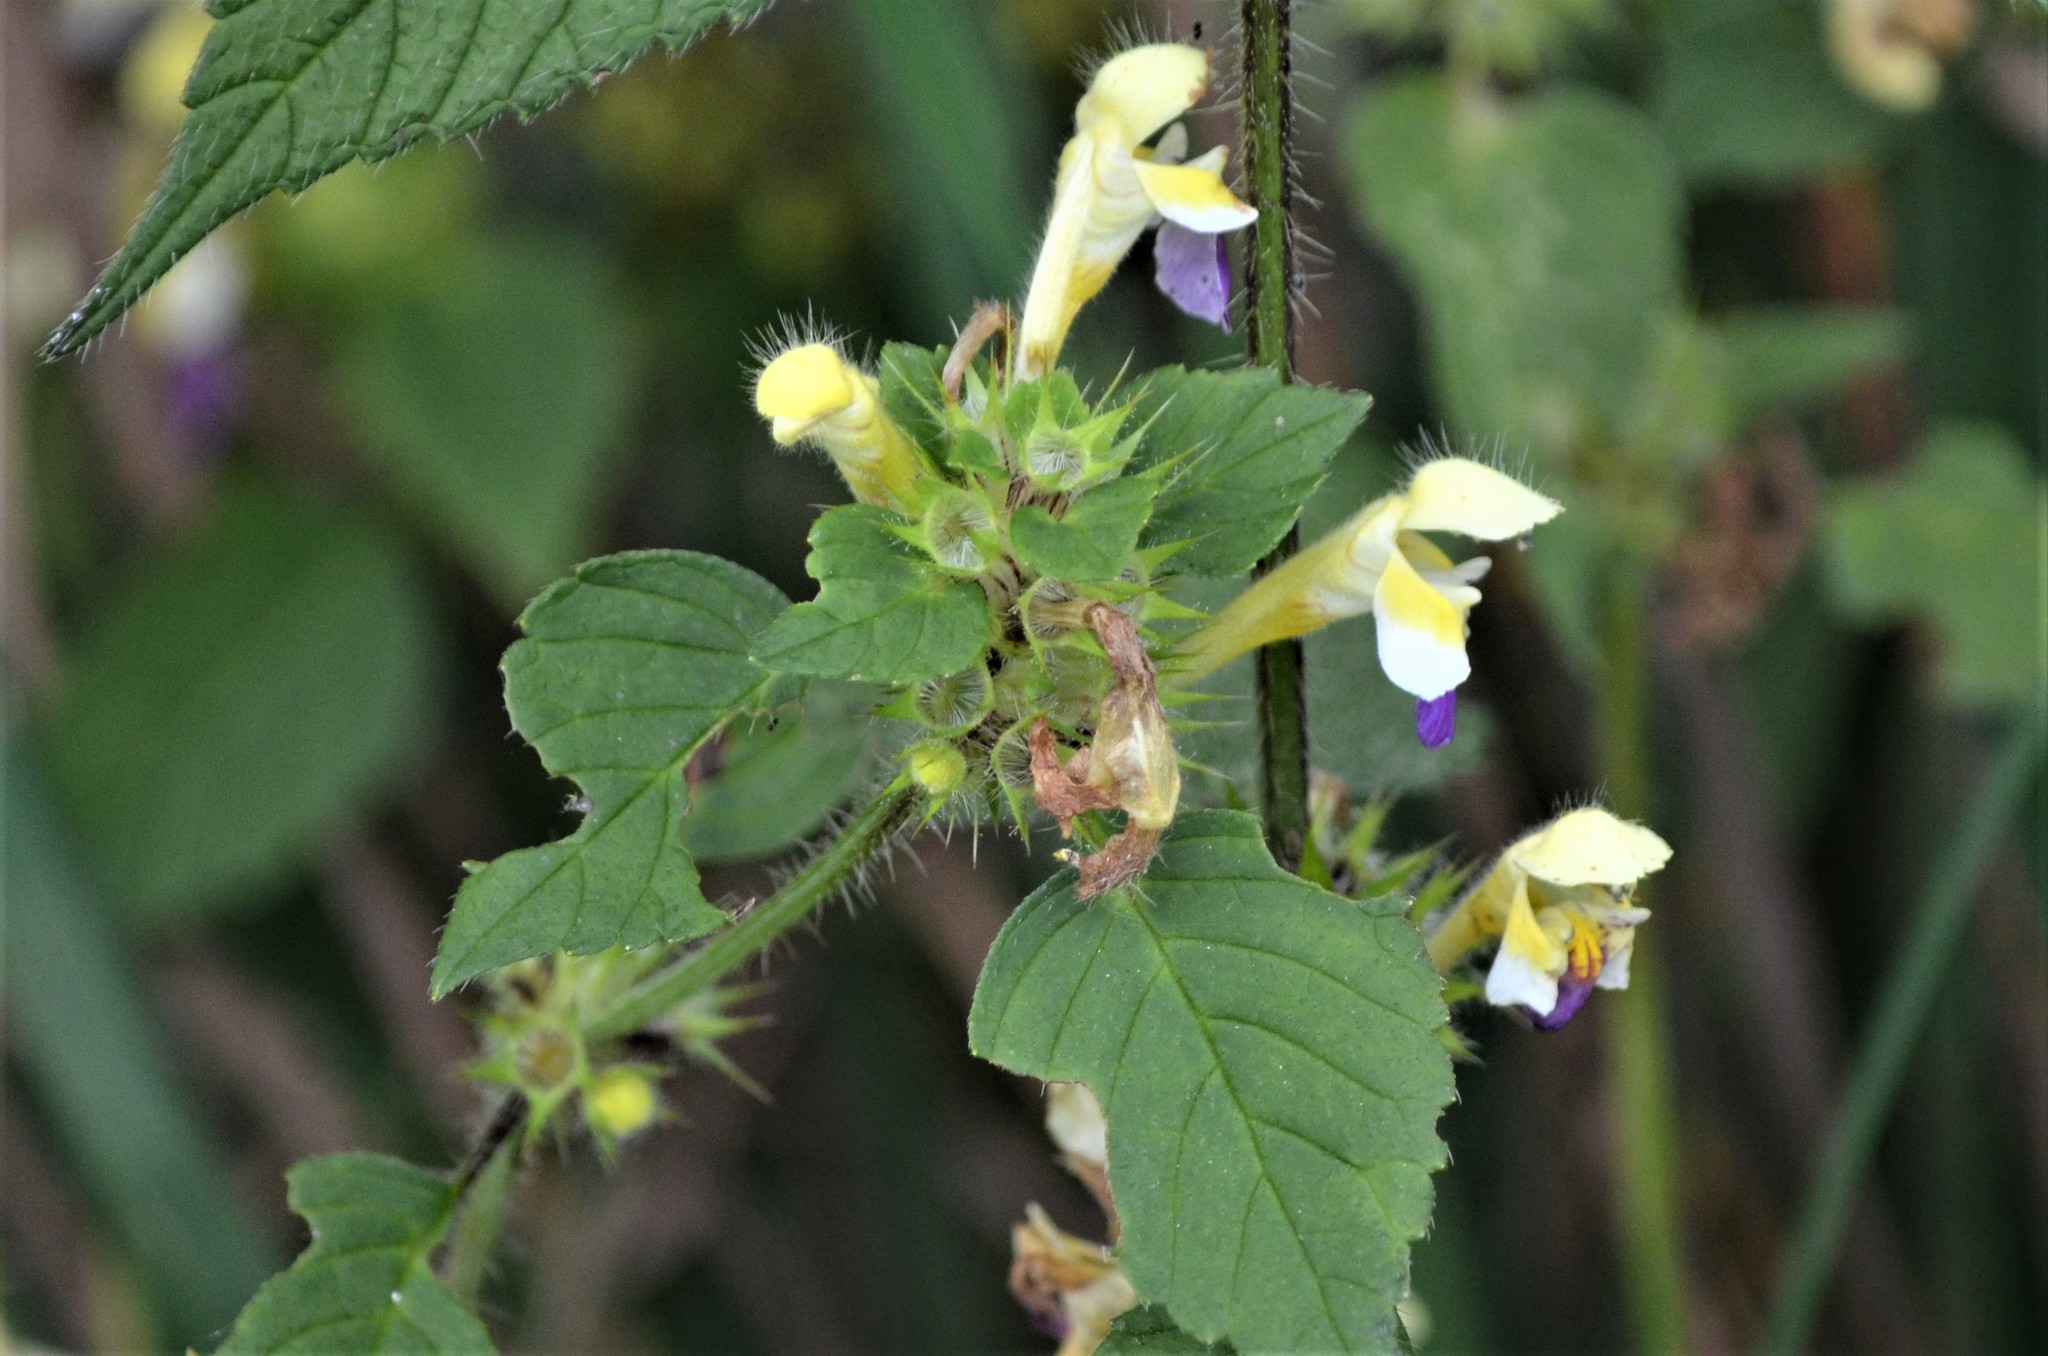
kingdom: Plantae
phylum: Tracheophyta
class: Magnoliopsida
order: Lamiales
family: Lamiaceae
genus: Galeopsis
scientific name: Galeopsis speciosa
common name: Large-flowered hemp-nettle
